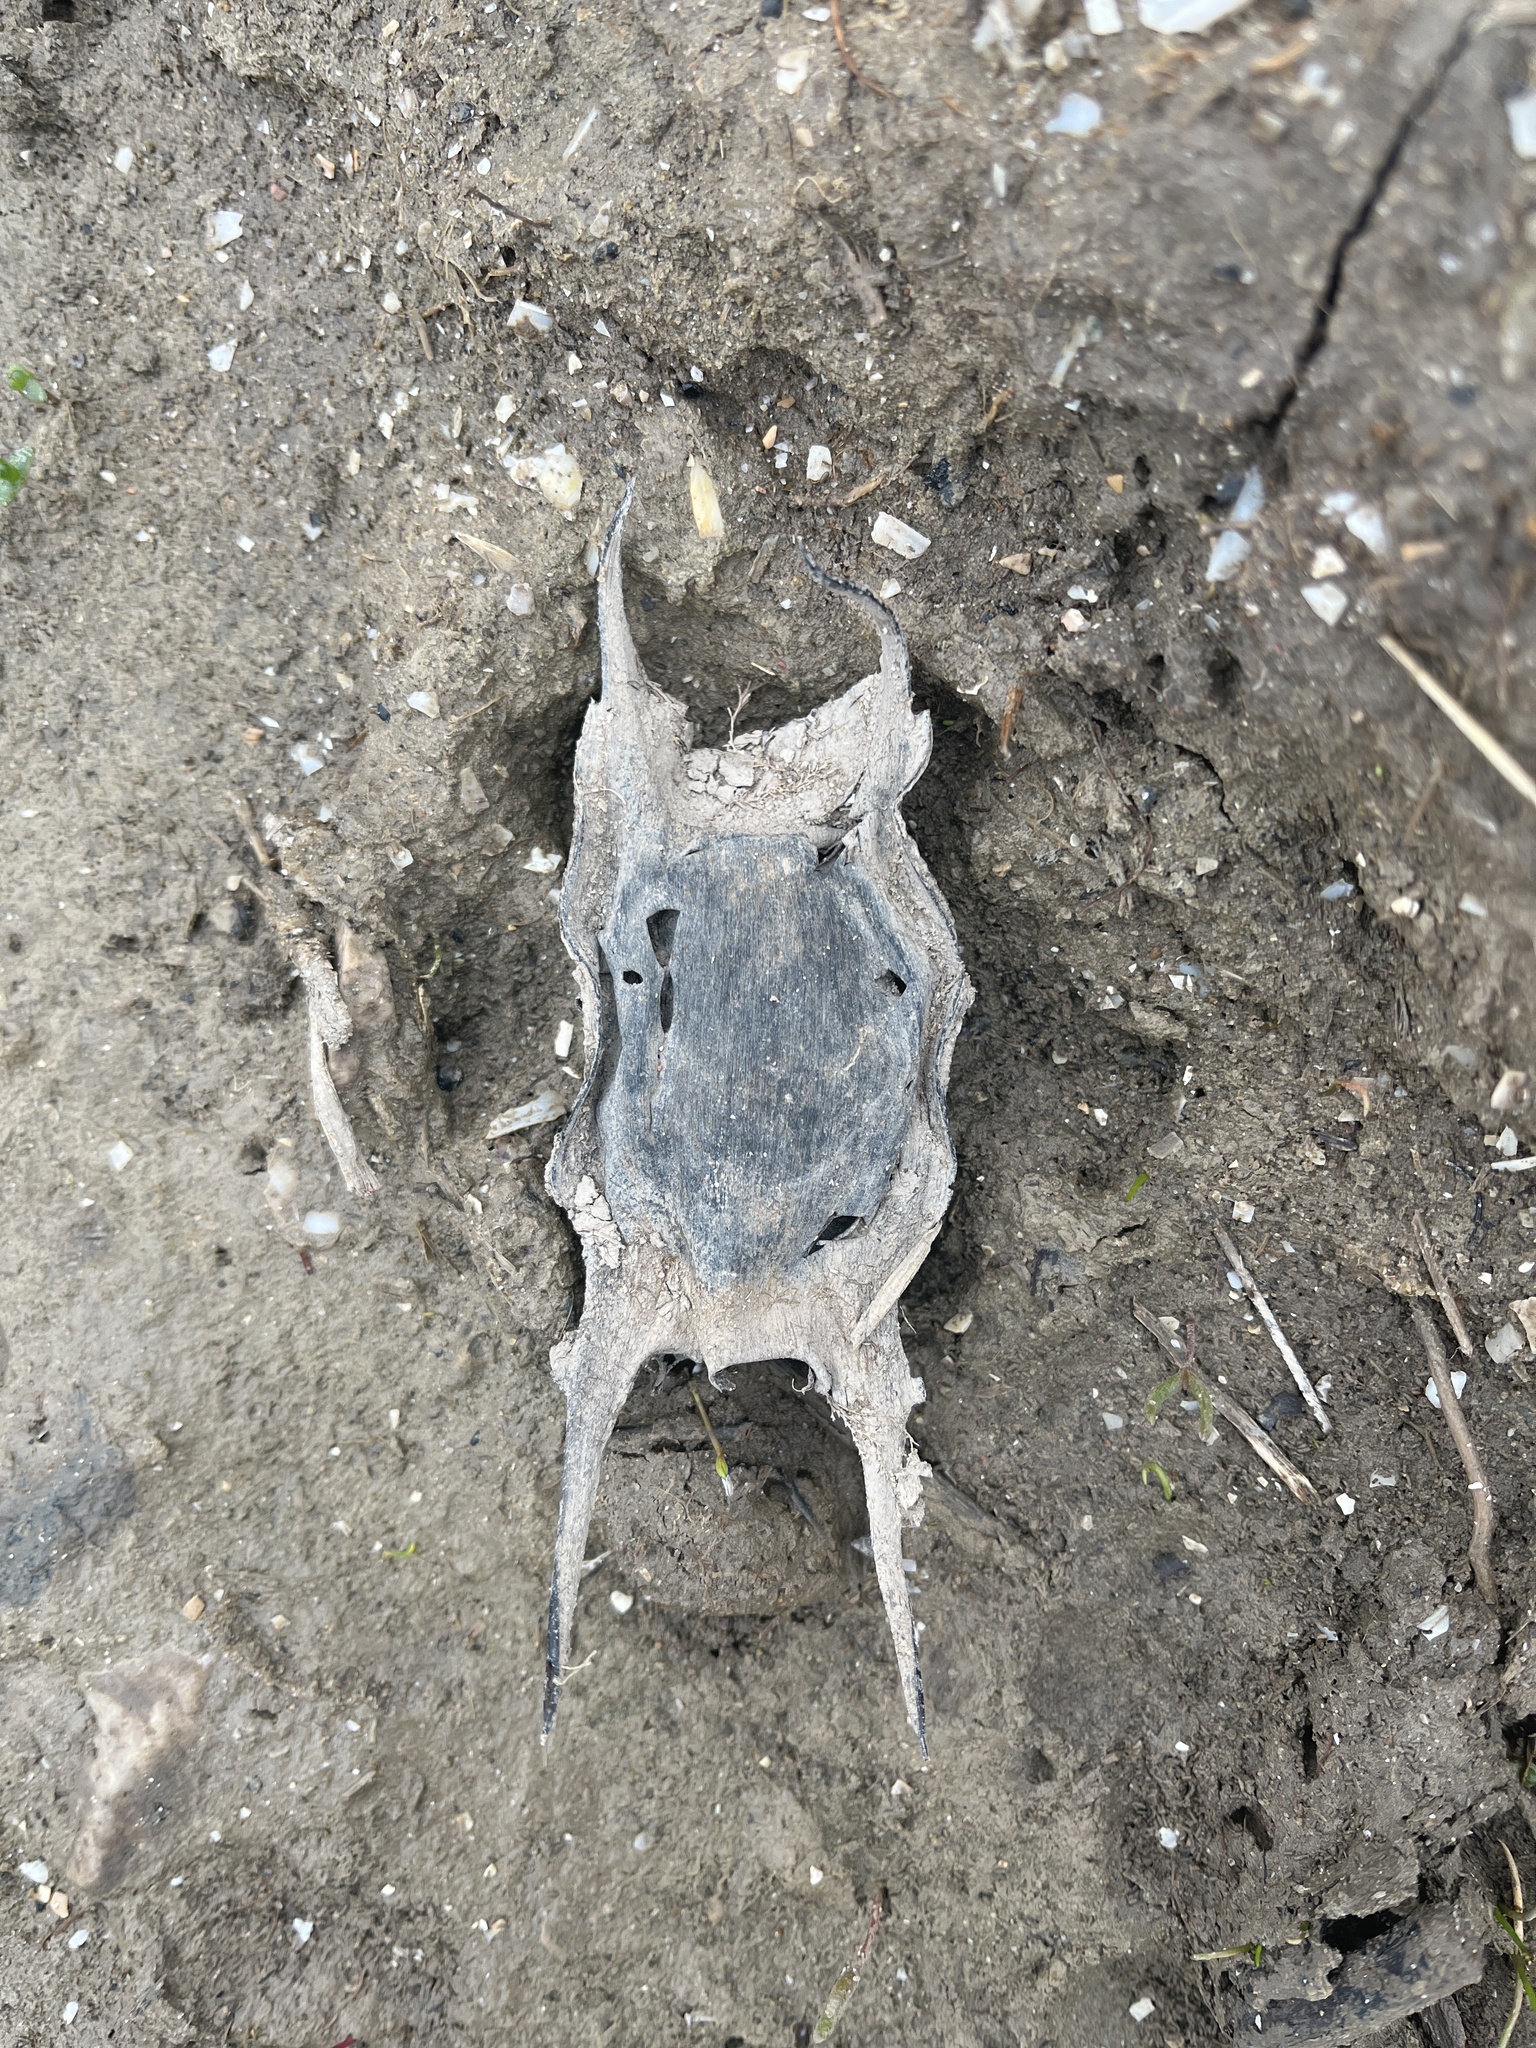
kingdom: Animalia
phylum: Chordata
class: Elasmobranchii
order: Rajiformes
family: Rajidae
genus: Raja
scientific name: Raja clavata
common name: Thornback ray
